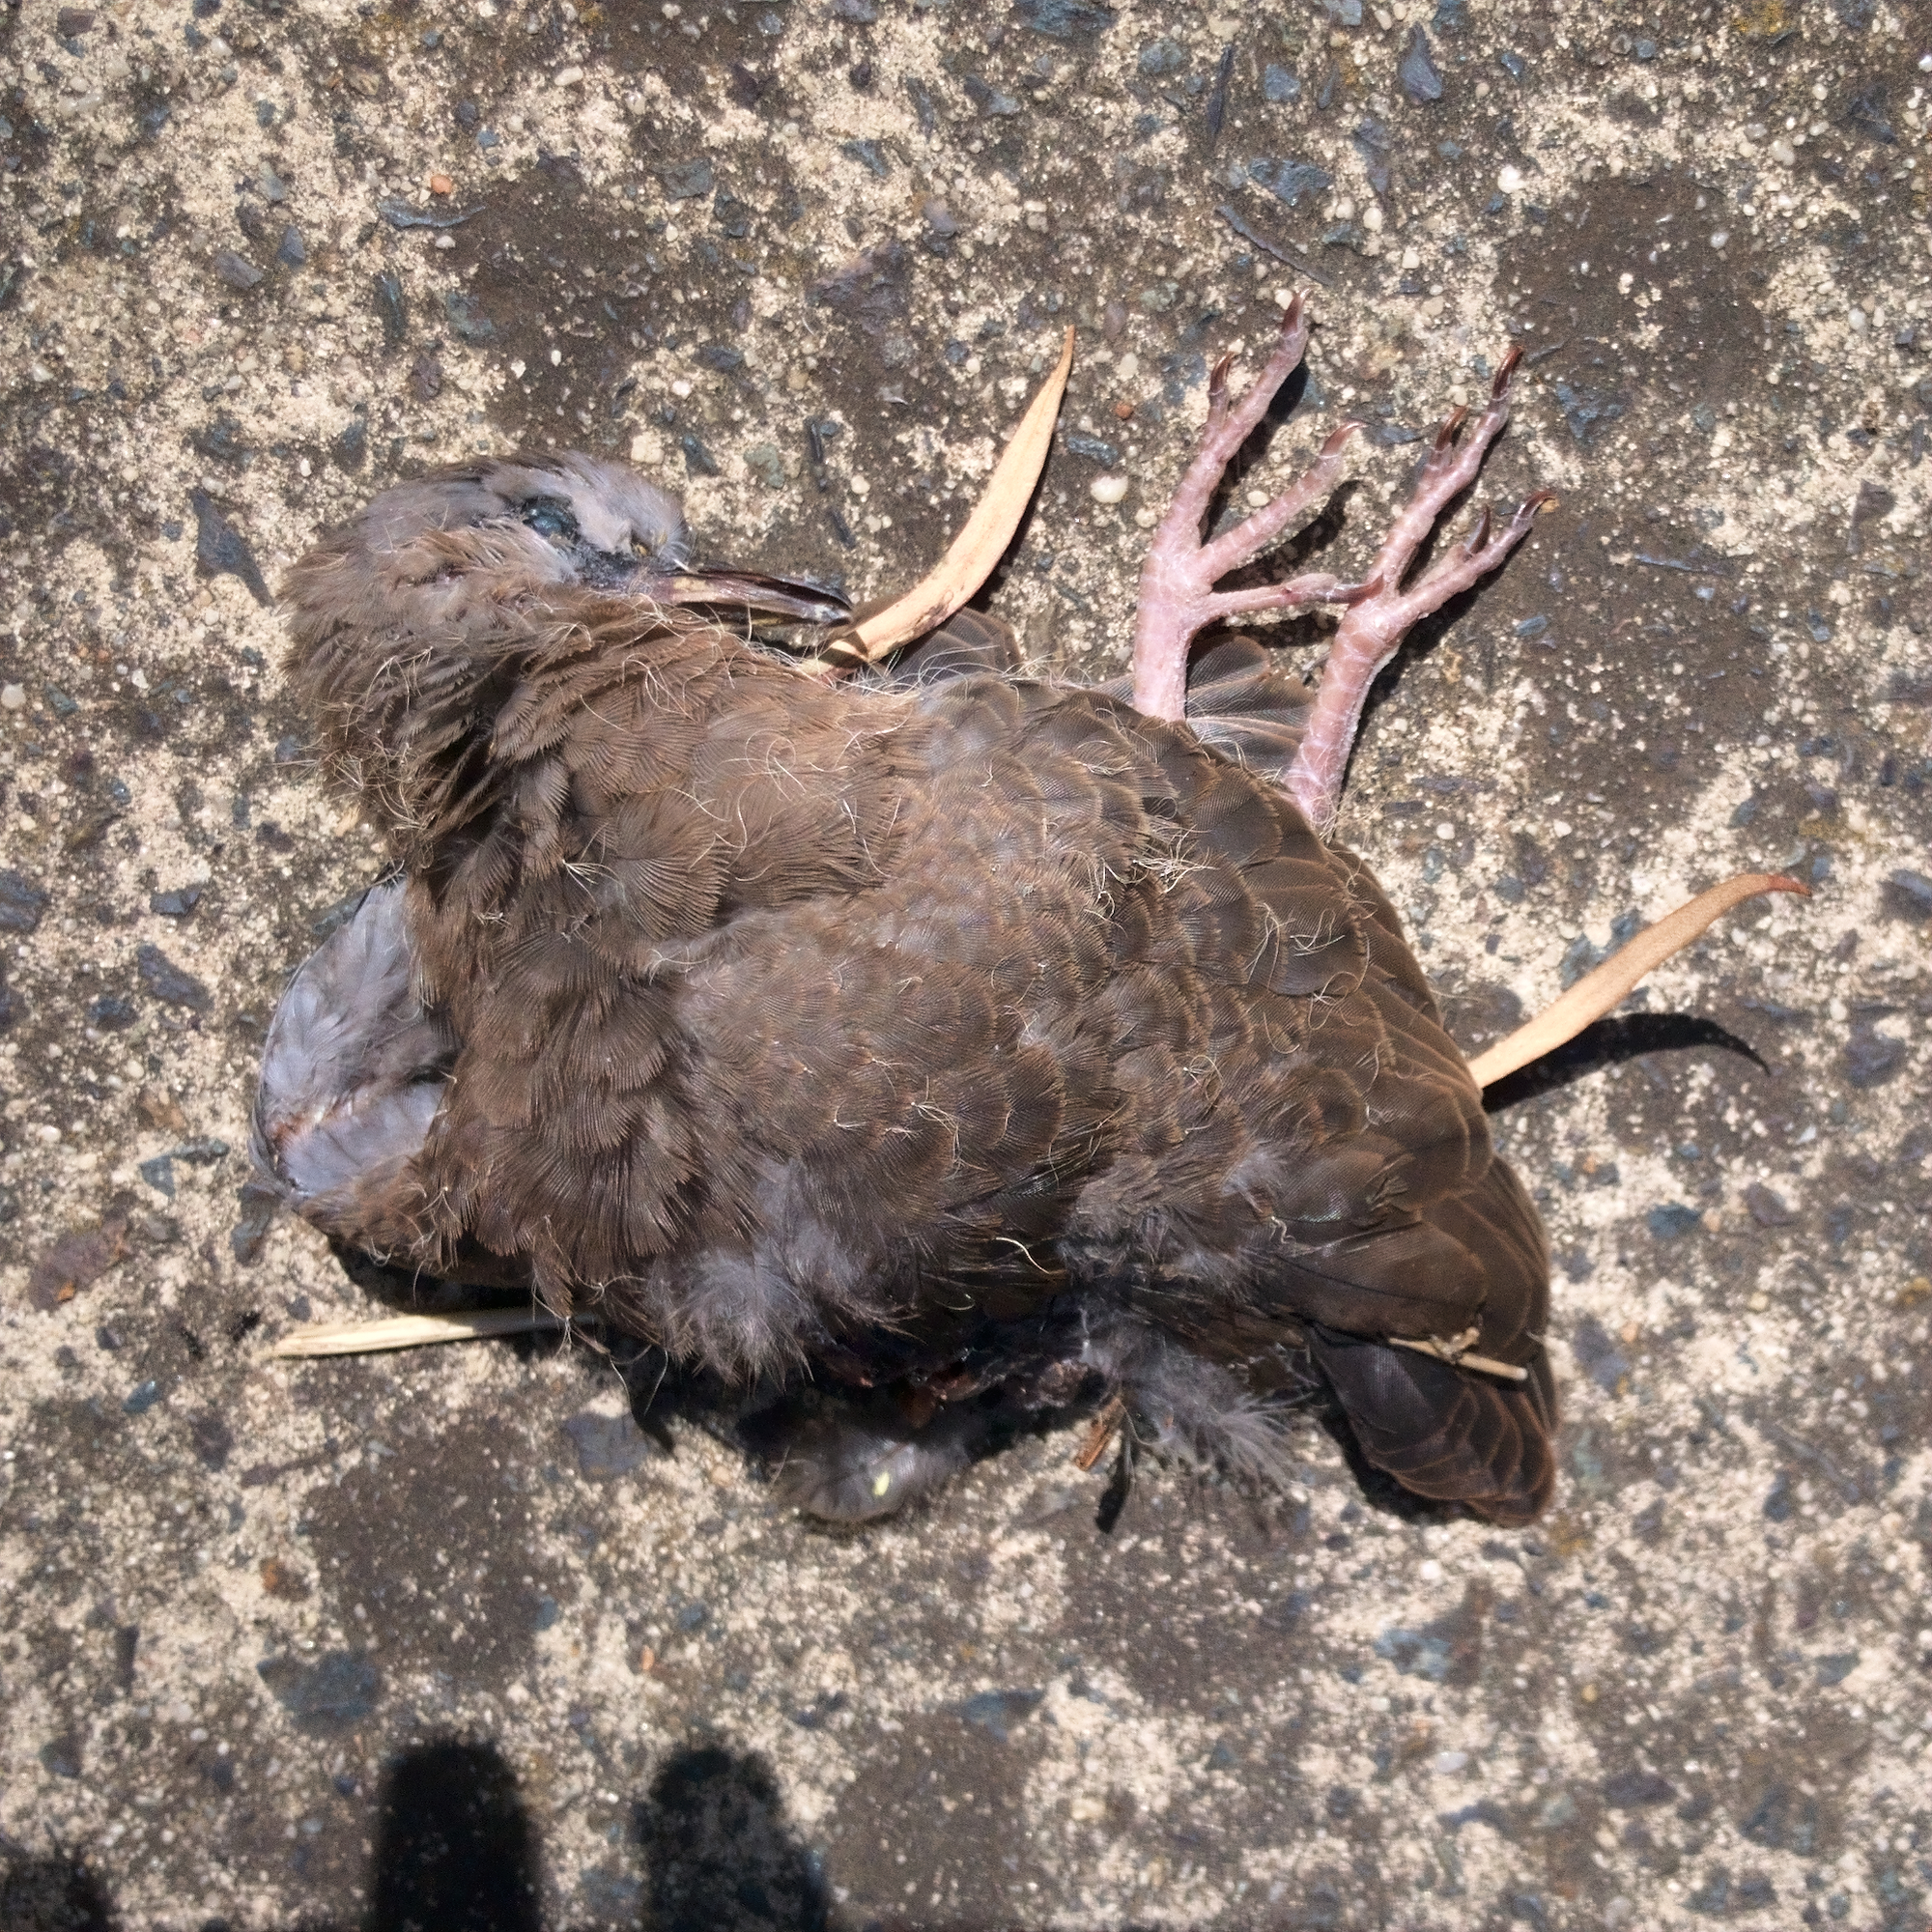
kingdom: Animalia
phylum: Chordata
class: Aves
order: Columbiformes
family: Columbidae
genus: Spilopelia
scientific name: Spilopelia chinensis
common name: Spotted dove
